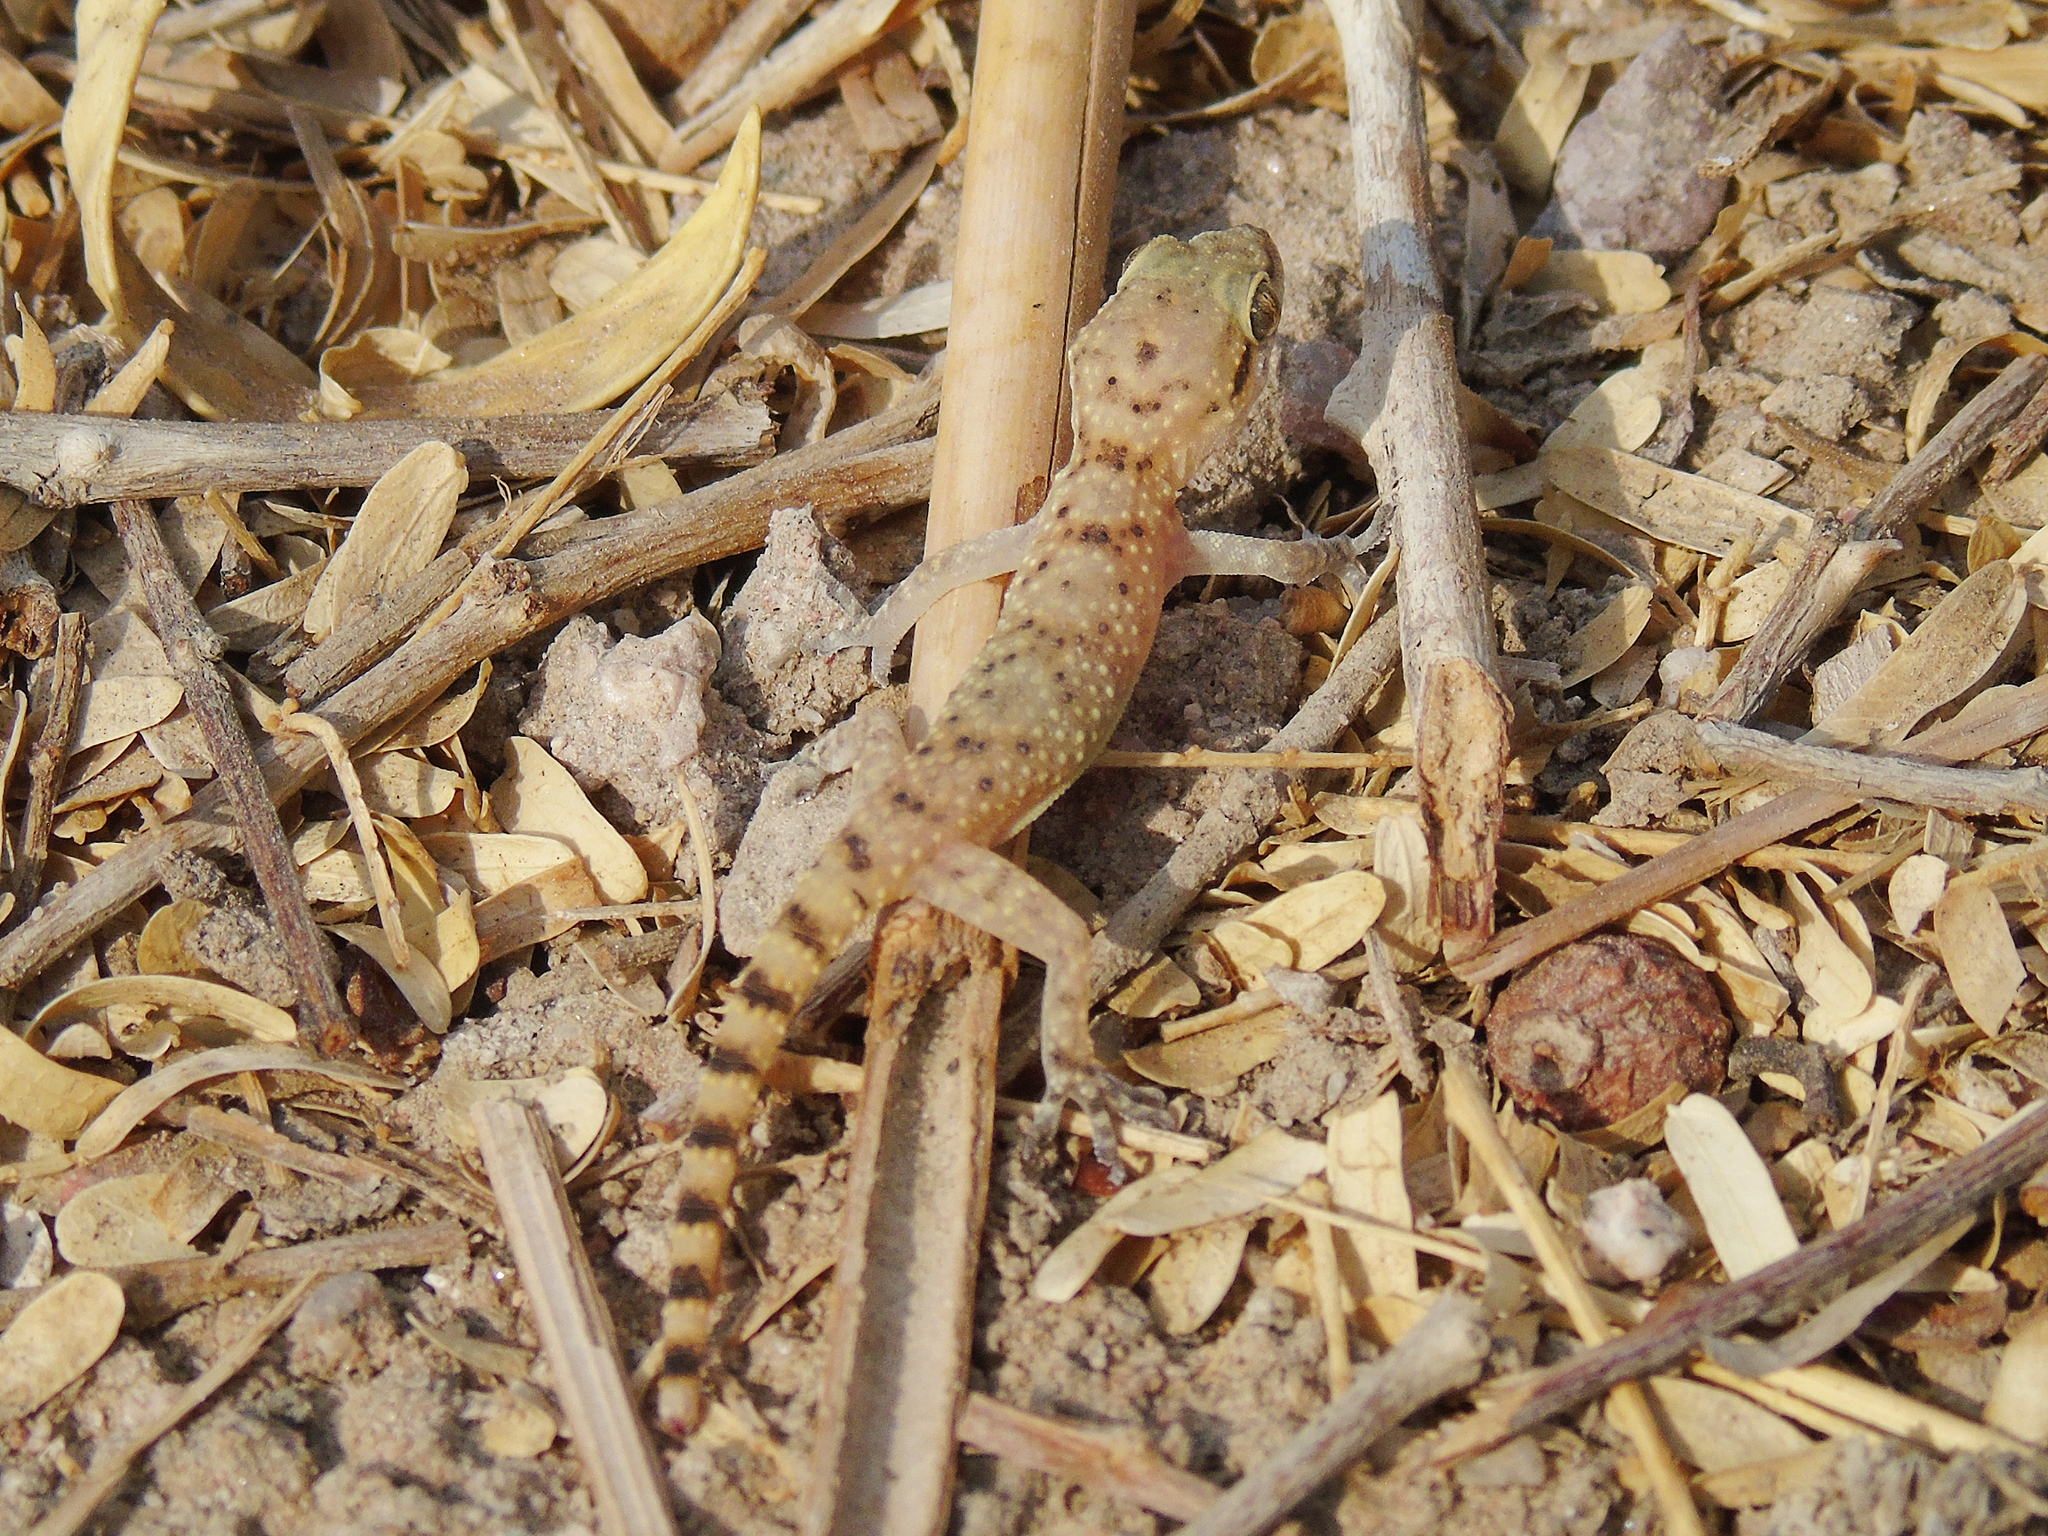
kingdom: Animalia
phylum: Chordata
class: Squamata
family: Gekkonidae
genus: Hemidactylus
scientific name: Hemidactylus turcicus
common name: Turkish gecko
